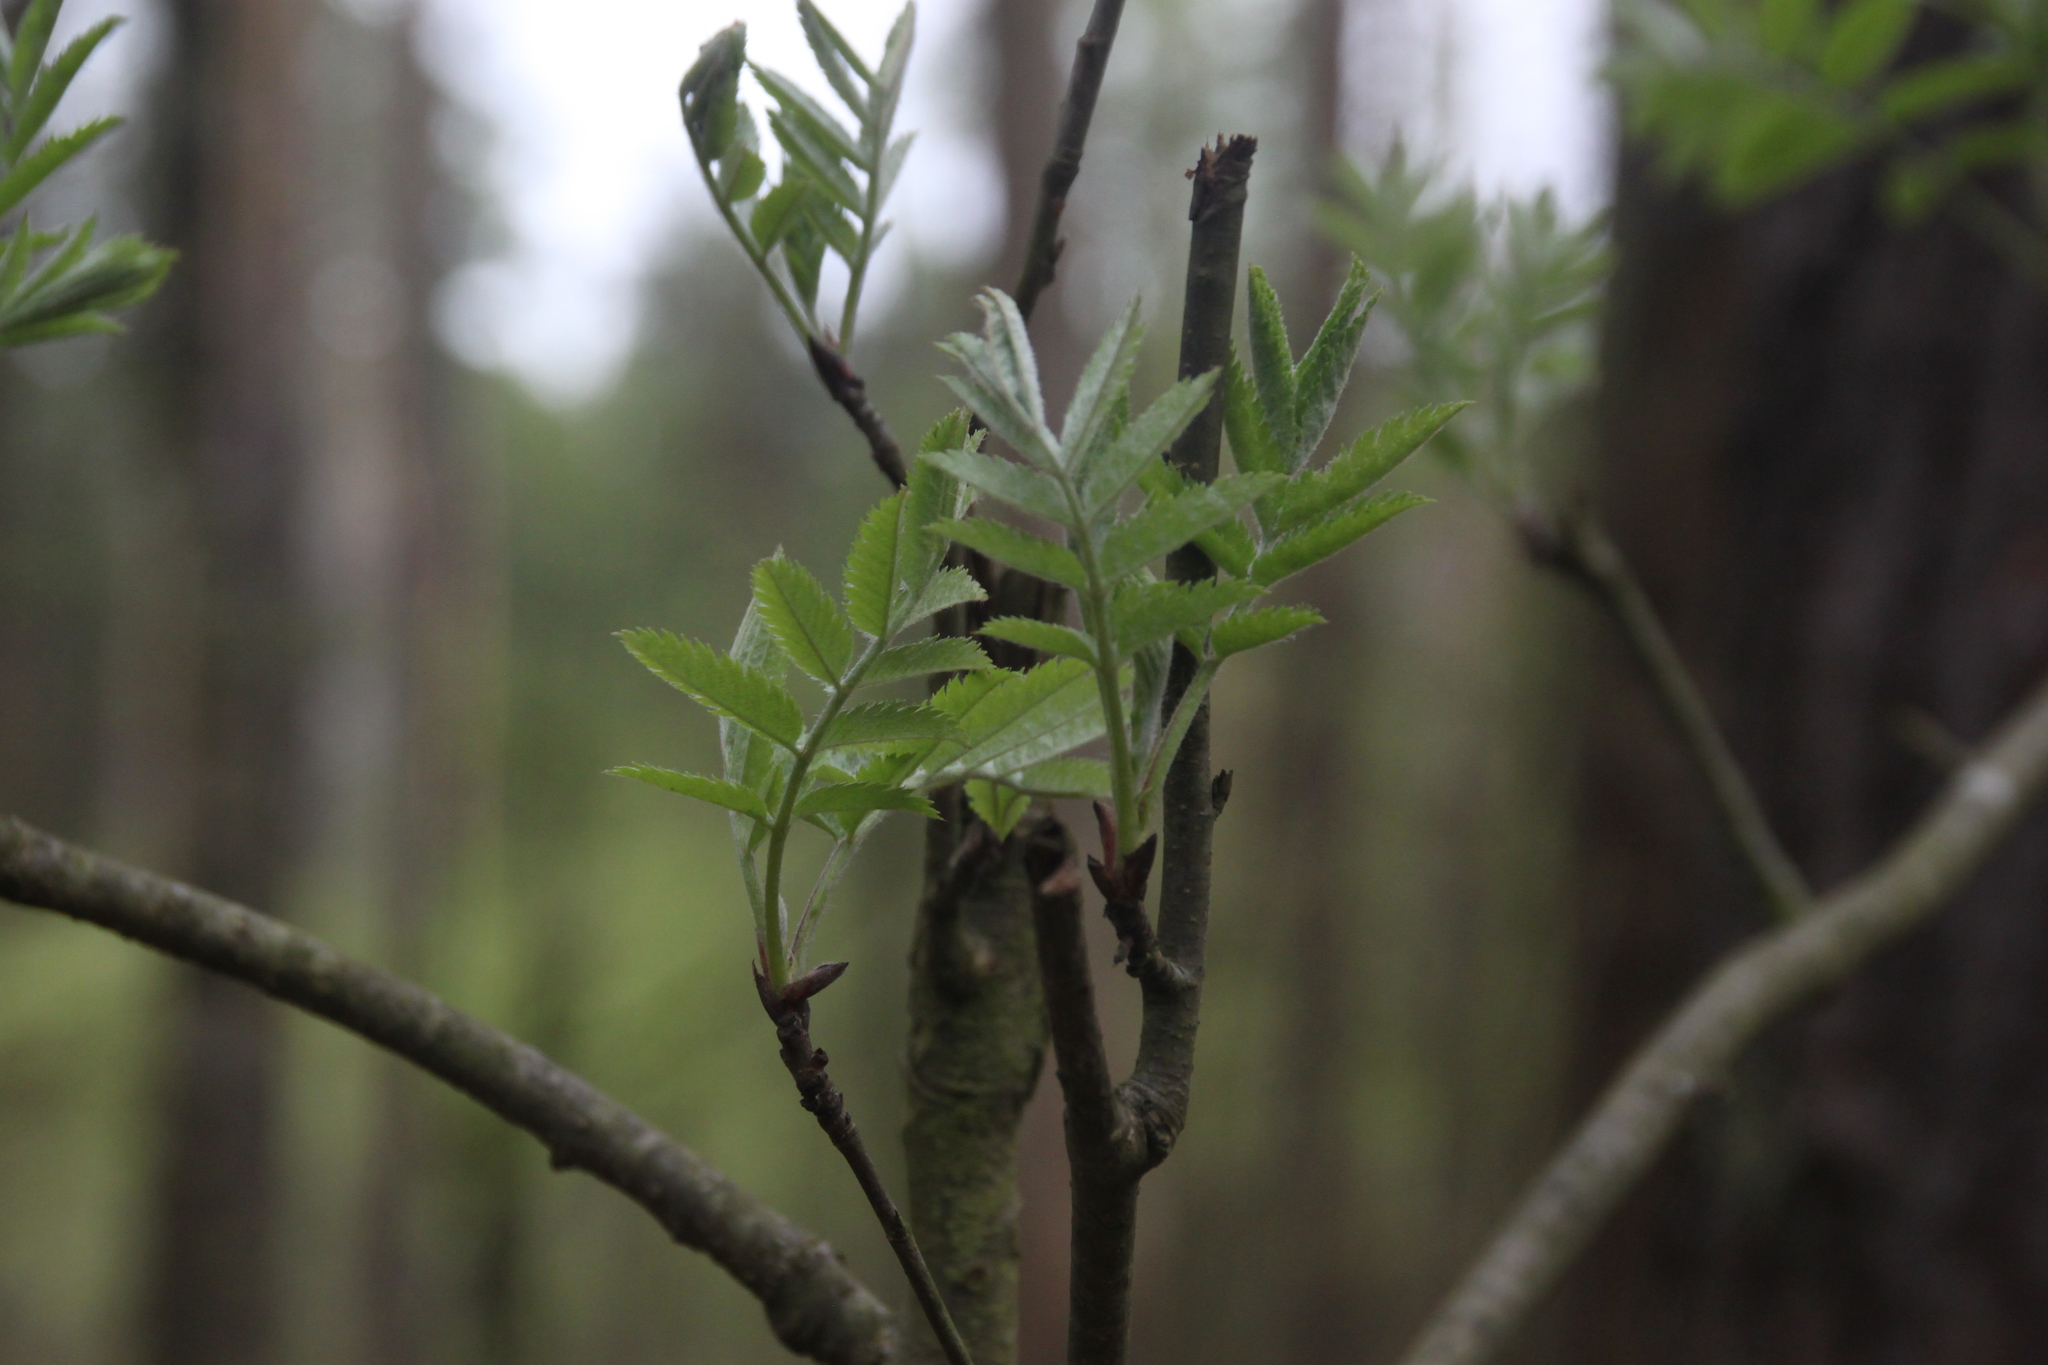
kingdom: Plantae
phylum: Tracheophyta
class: Magnoliopsida
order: Rosales
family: Rosaceae
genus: Sorbus
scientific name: Sorbus aucuparia
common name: Rowan
